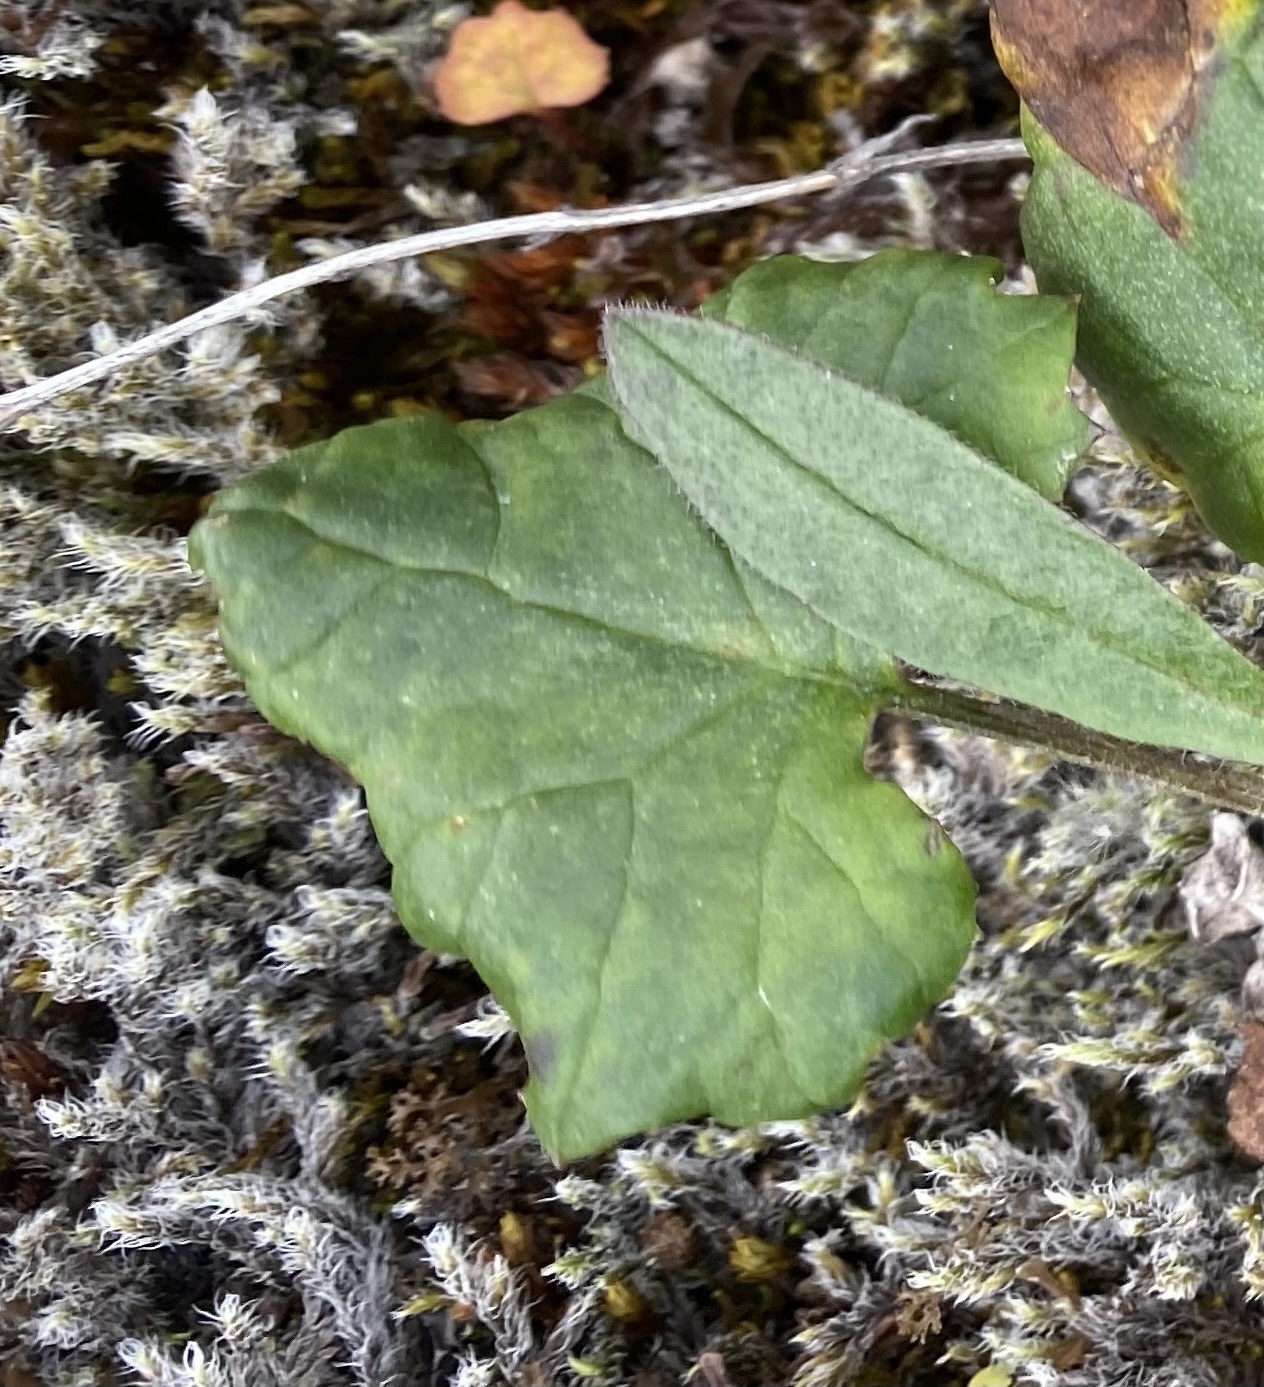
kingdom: Plantae
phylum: Tracheophyta
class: Magnoliopsida
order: Asterales
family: Asteraceae
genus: Endocellion
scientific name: Endocellion glaciale
